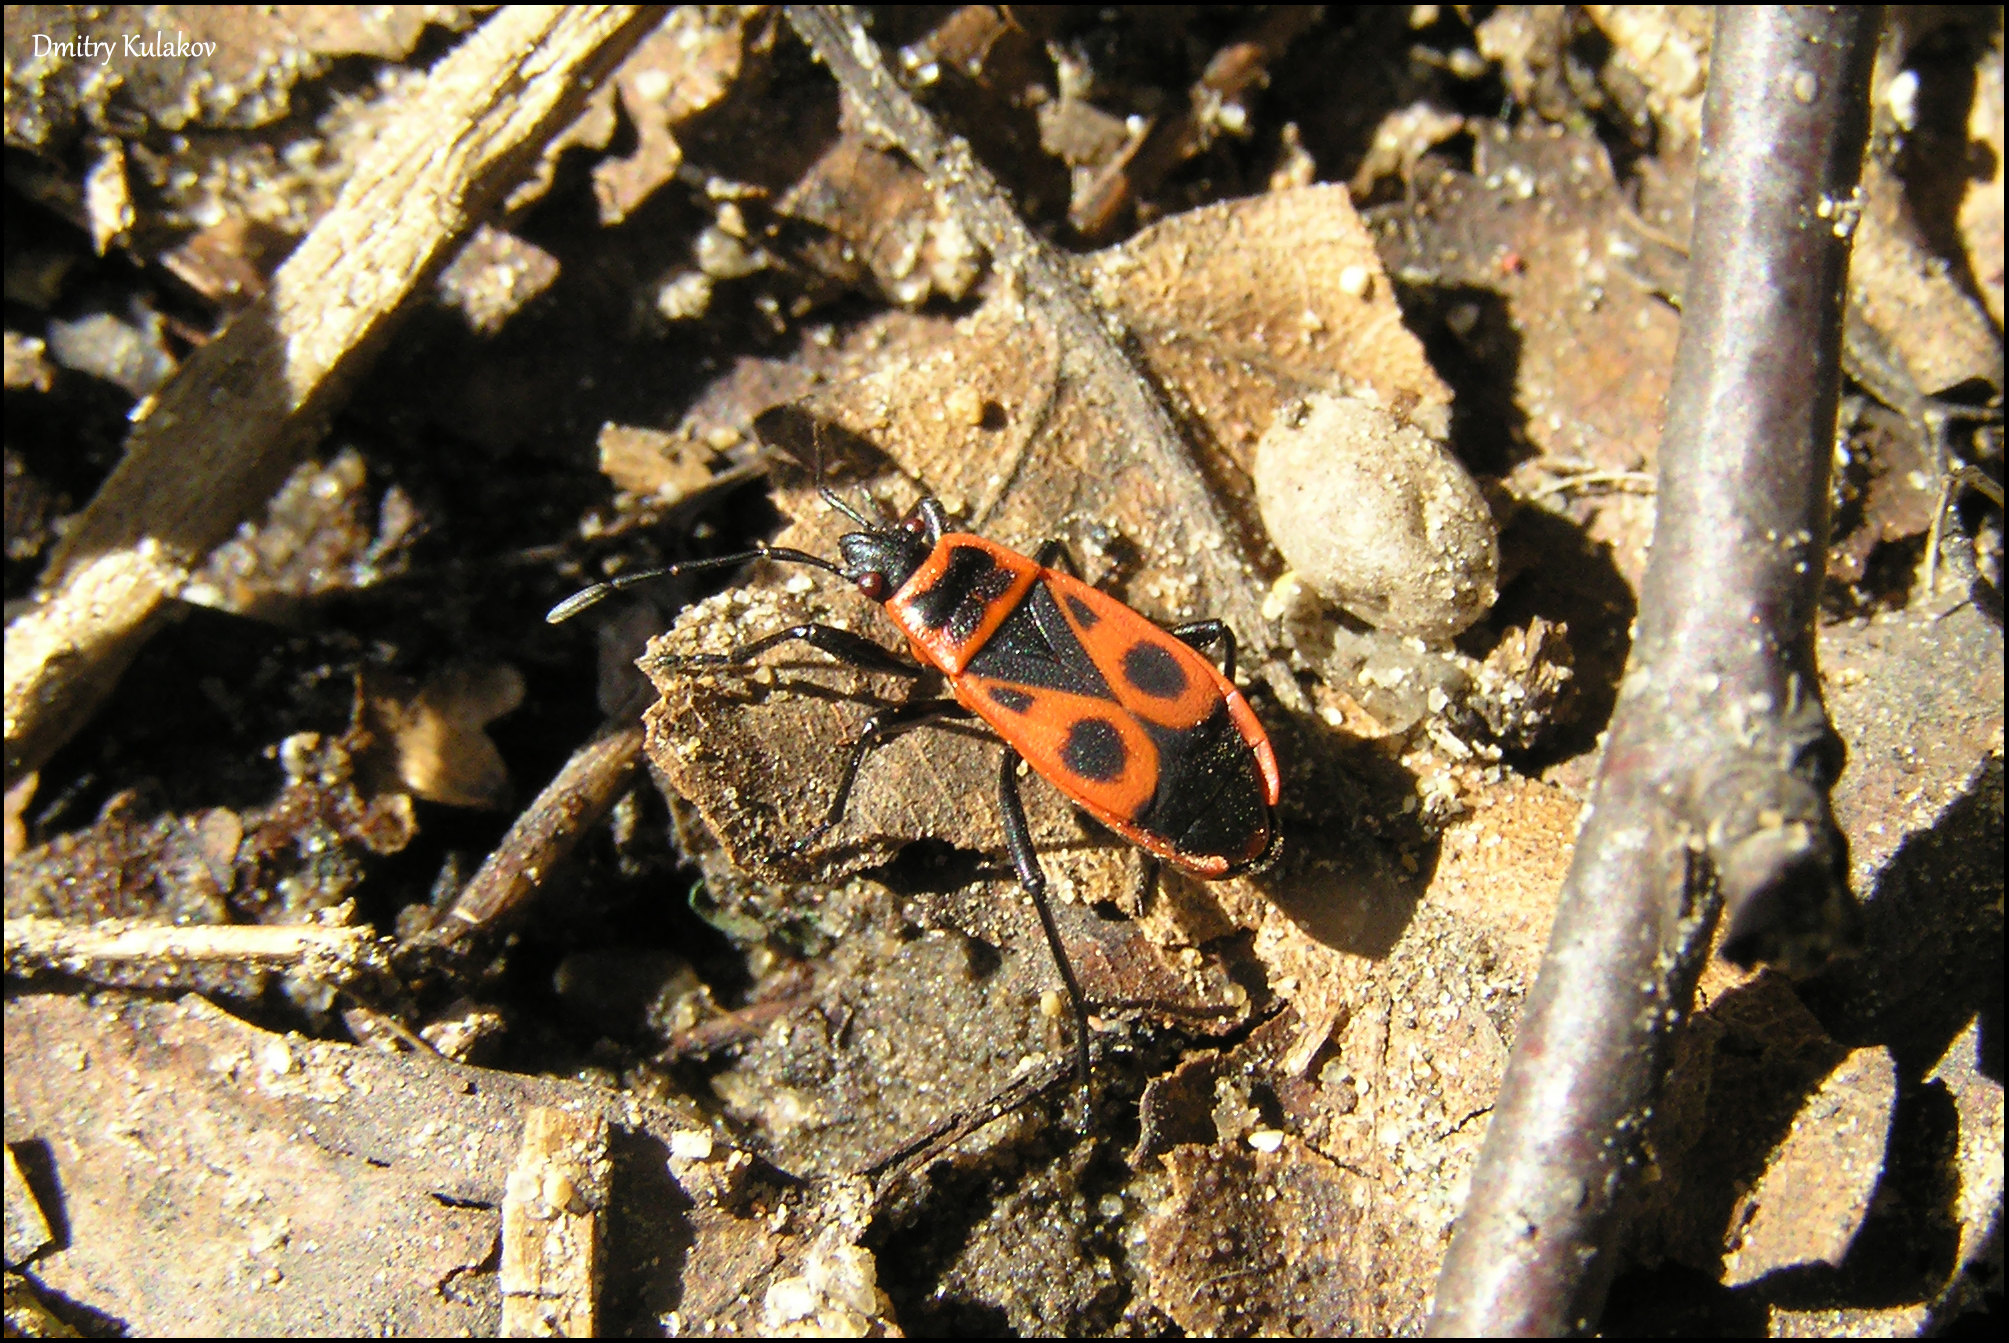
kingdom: Animalia
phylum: Arthropoda
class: Insecta
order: Hemiptera
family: Pyrrhocoridae
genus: Pyrrhocoris
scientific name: Pyrrhocoris apterus
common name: Firebug
